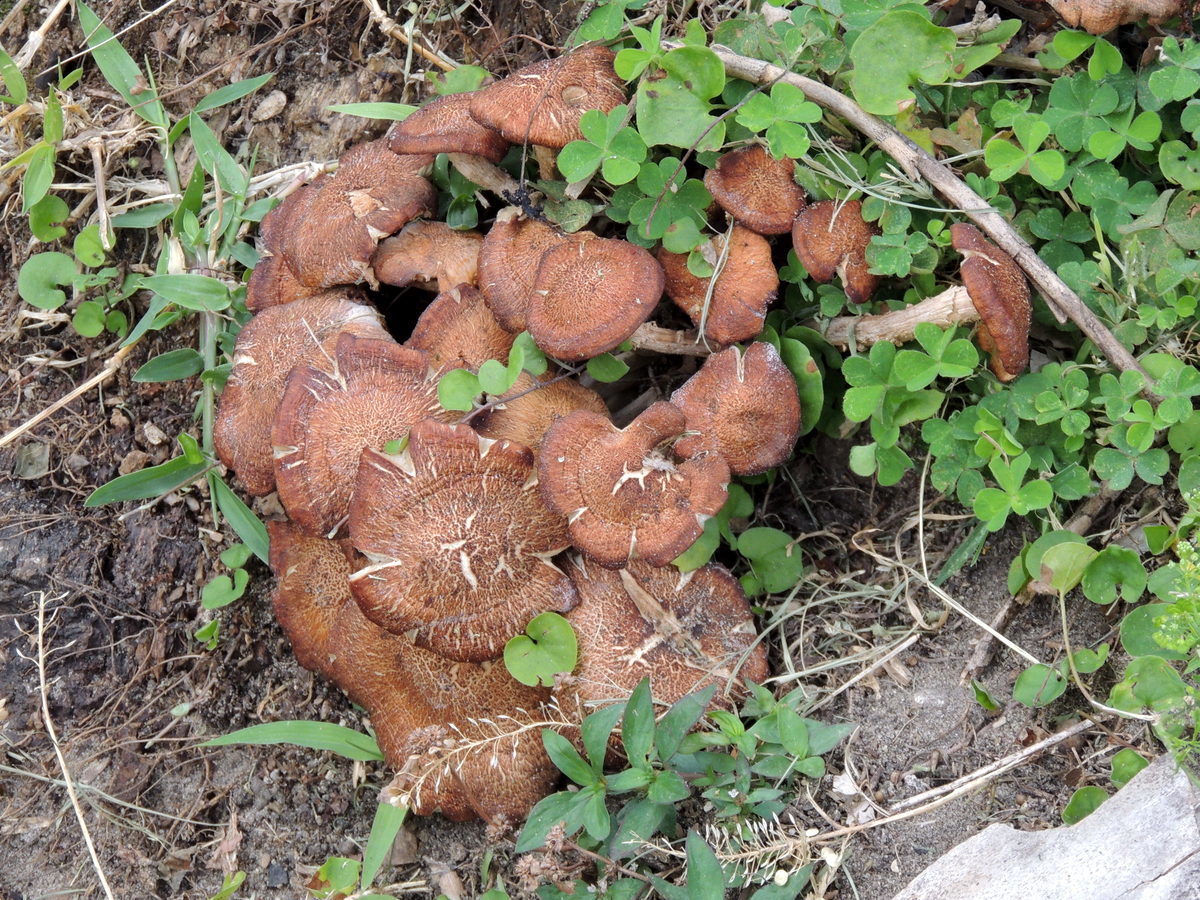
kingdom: Fungi
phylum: Basidiomycota
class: Agaricomycetes
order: Agaricales
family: Physalacriaceae
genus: Desarmillaria
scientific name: Desarmillaria caespitosa
